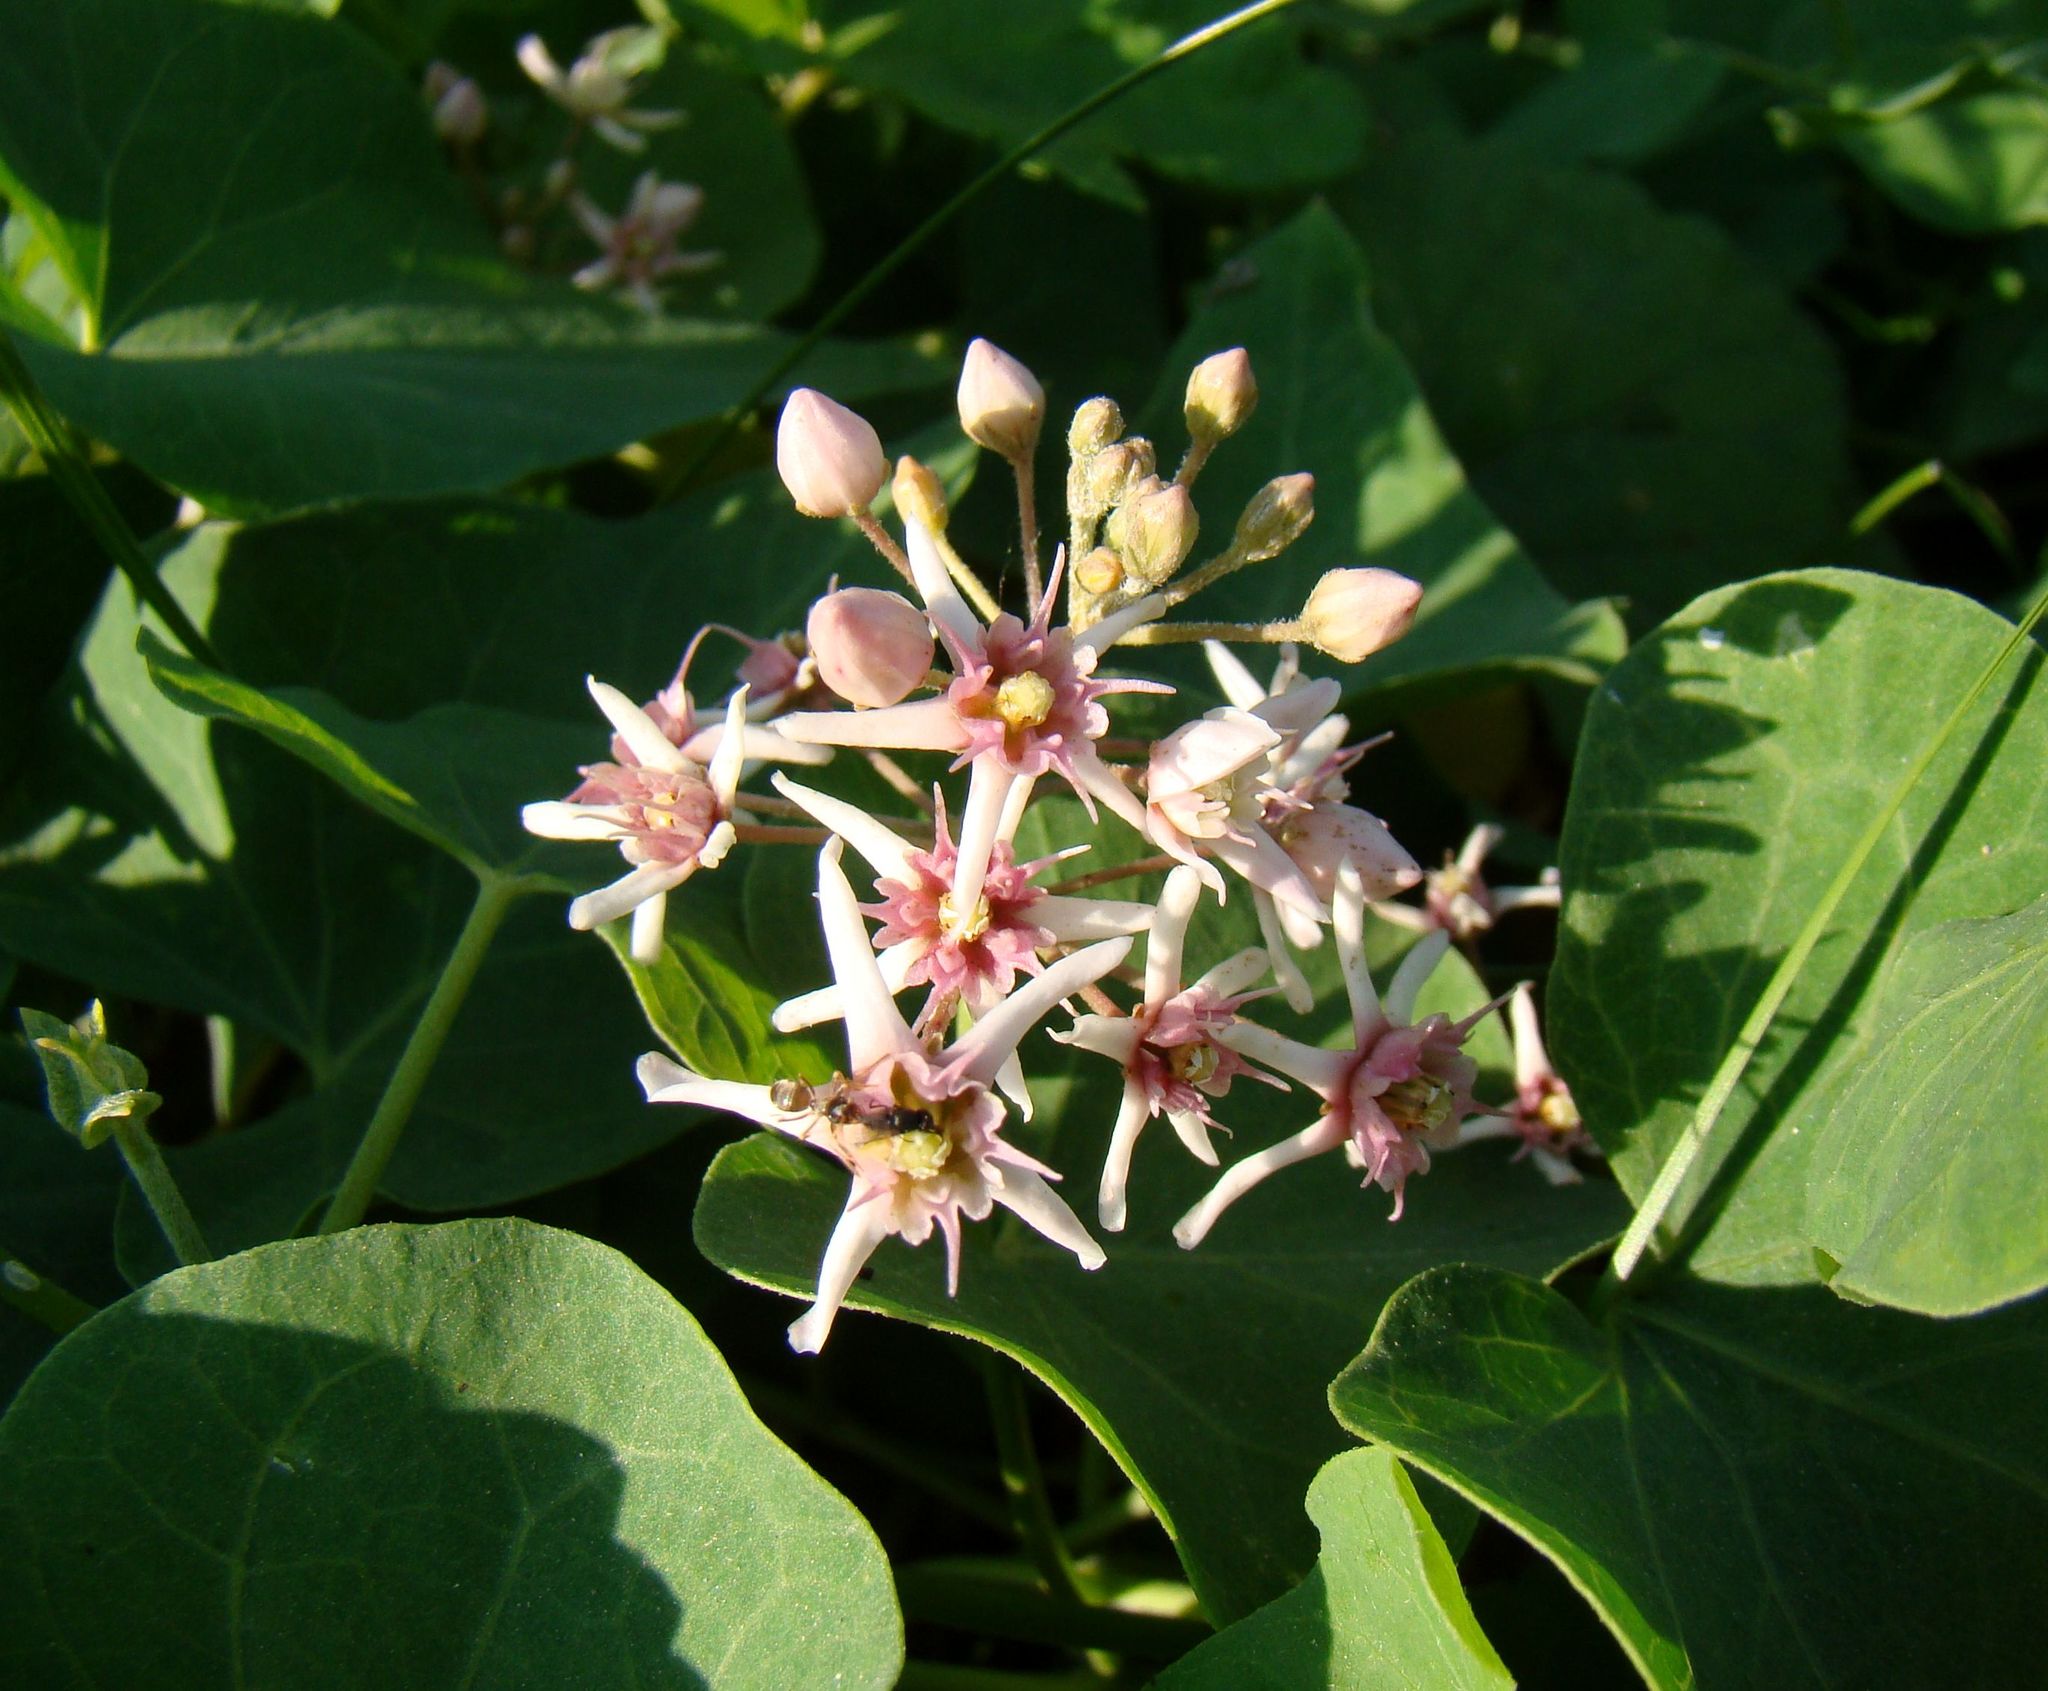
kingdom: Plantae
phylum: Tracheophyta
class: Magnoliopsida
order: Gentianales
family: Apocynaceae
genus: Cynanchum
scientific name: Cynanchum acutum
